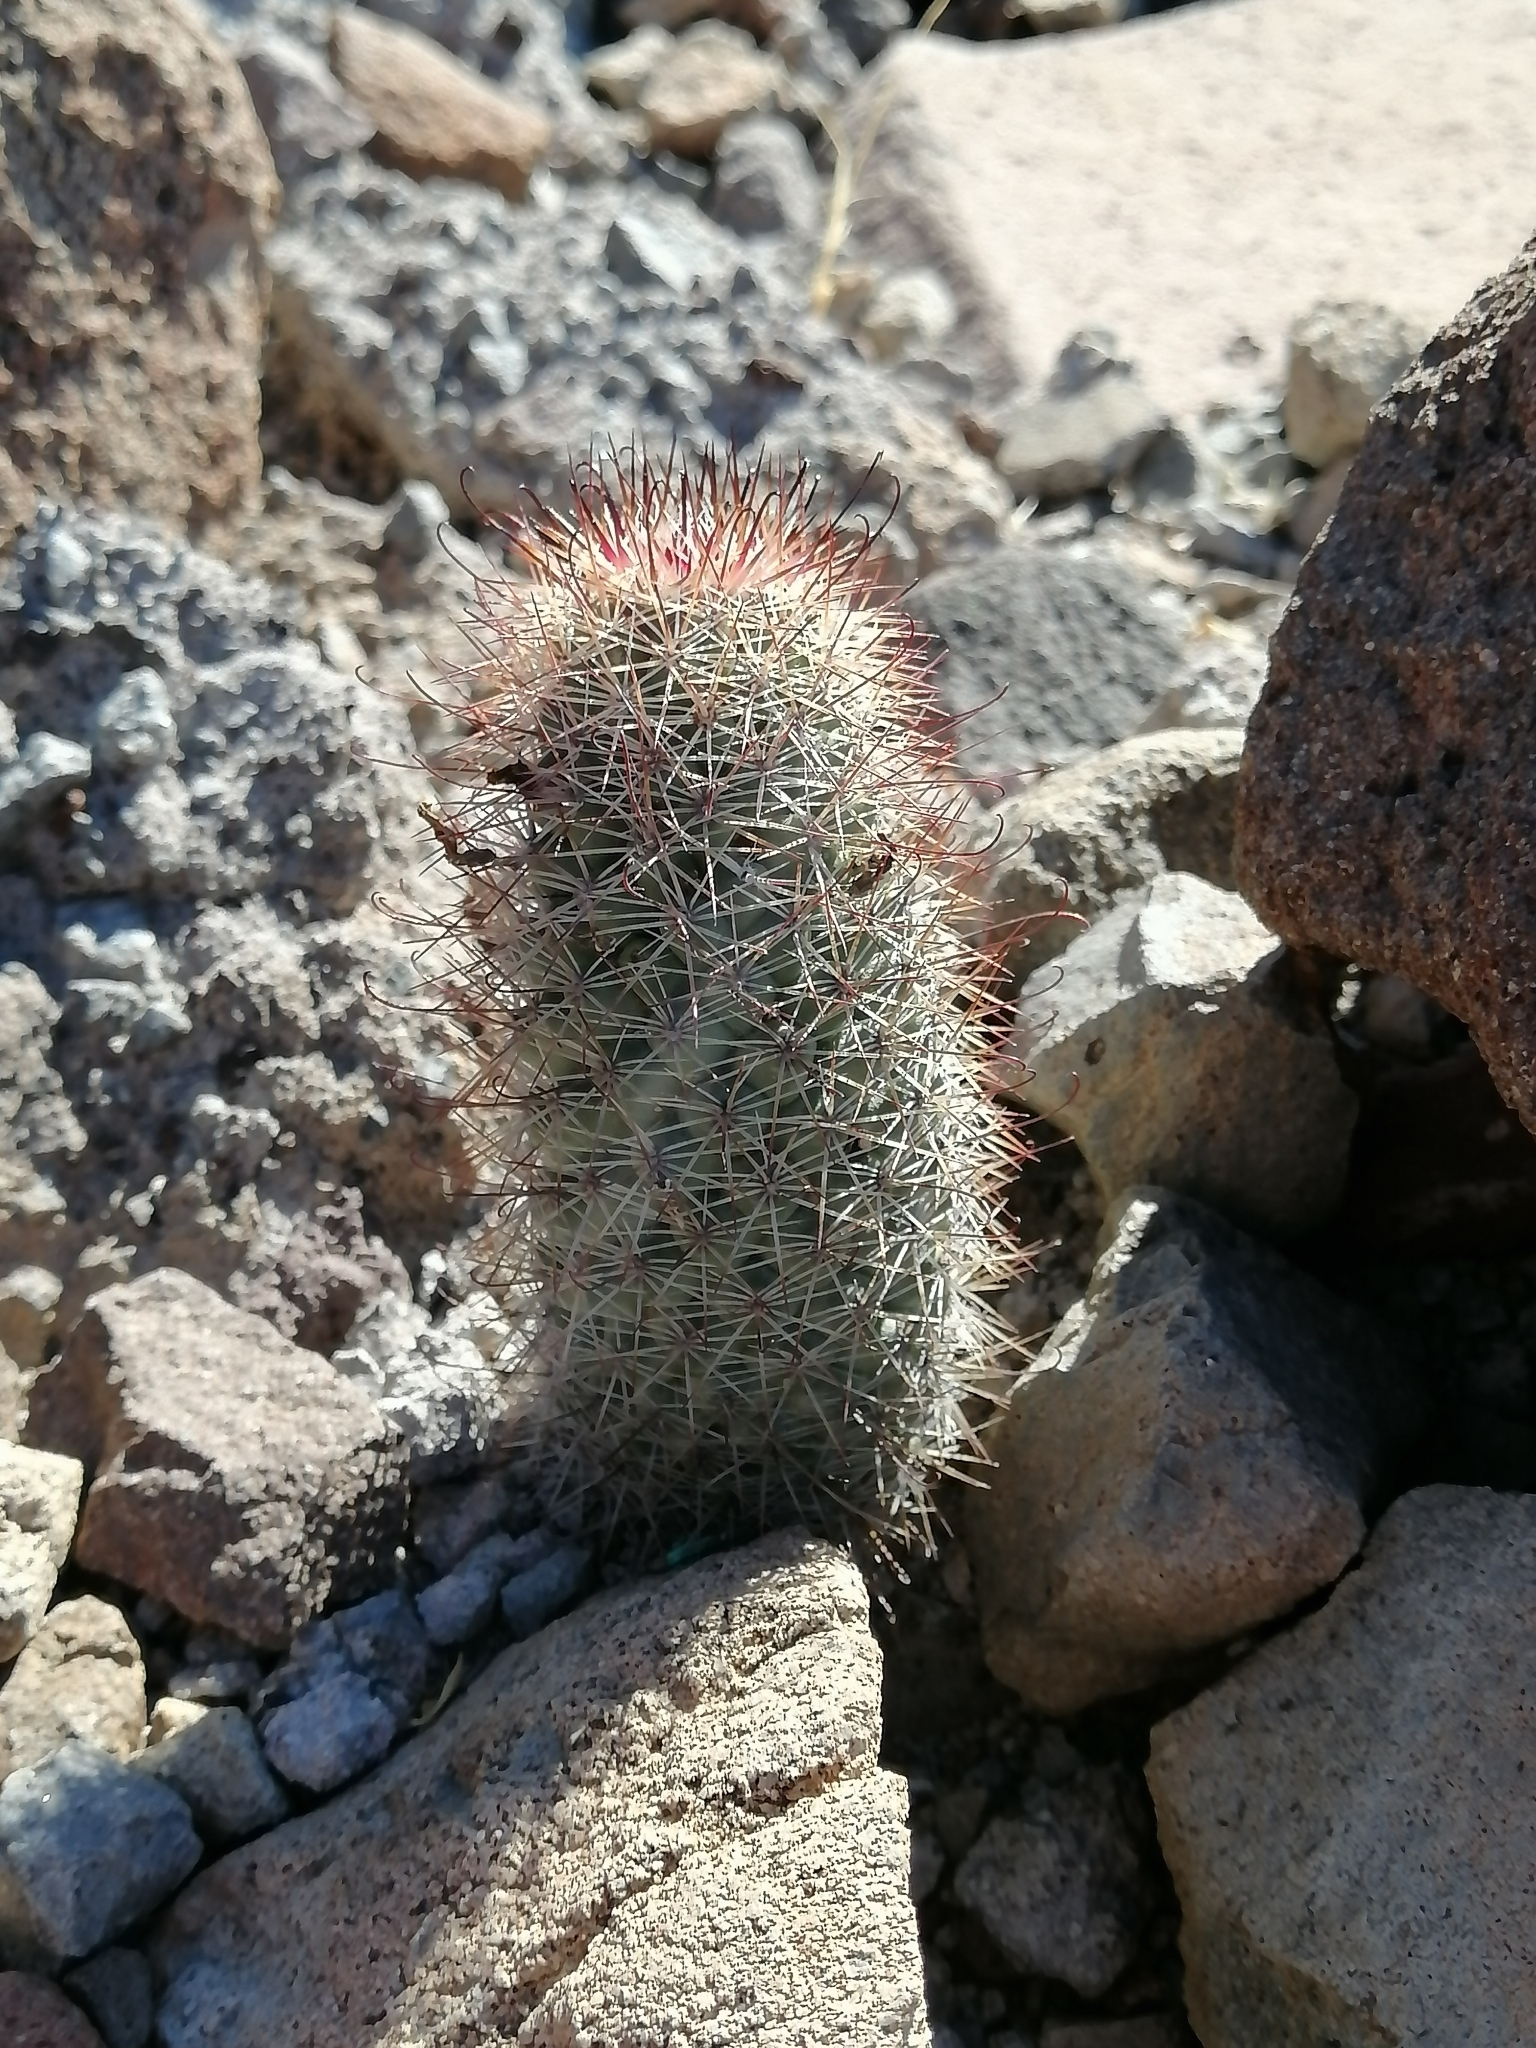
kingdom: Plantae
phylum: Tracheophyta
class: Magnoliopsida
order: Caryophyllales
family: Cactaceae
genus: Cochemiea
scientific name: Cochemiea fraileana
